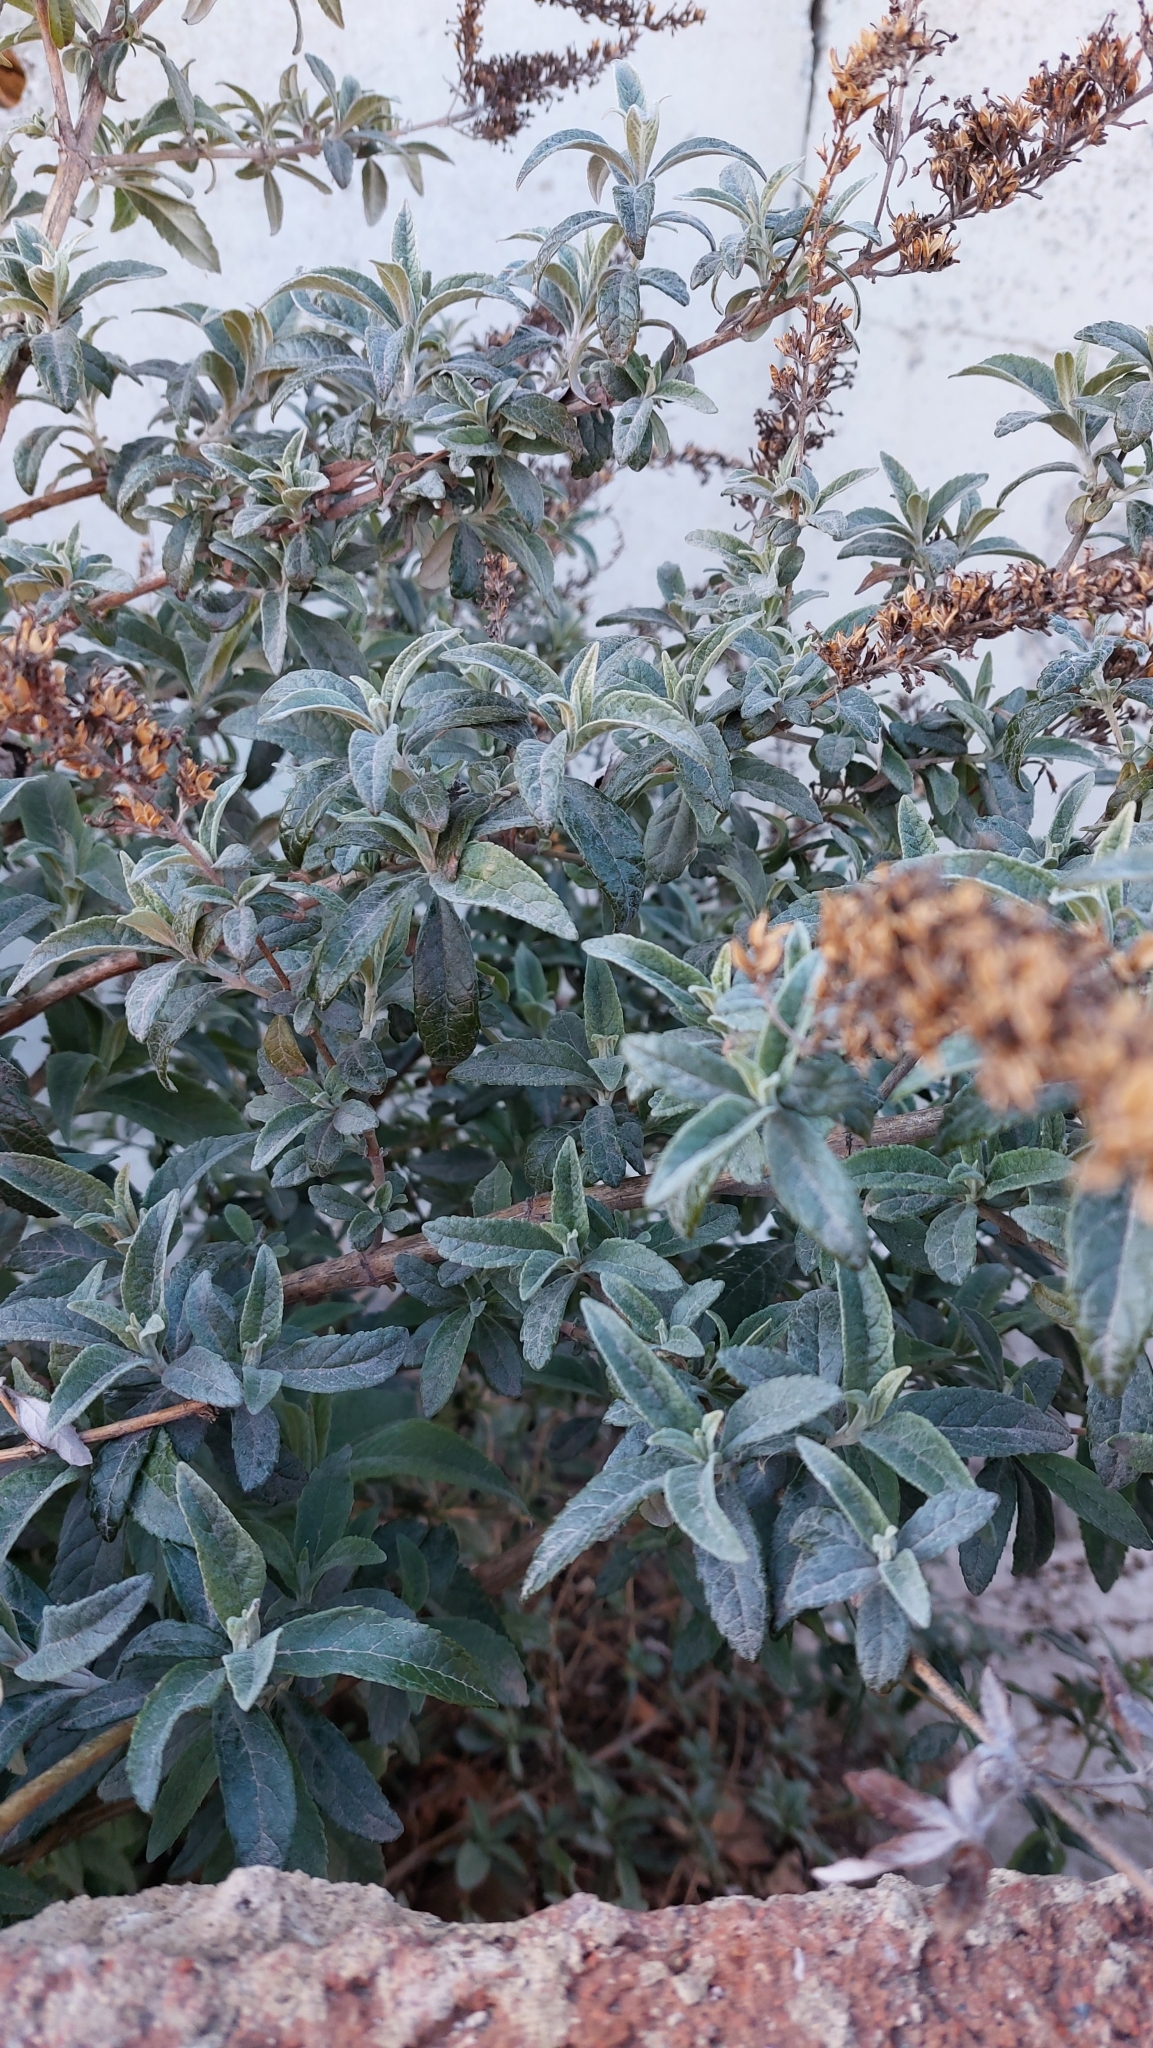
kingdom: Plantae
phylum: Tracheophyta
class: Magnoliopsida
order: Lamiales
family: Scrophulariaceae
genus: Buddleja
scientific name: Buddleja davidii
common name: Butterfly-bush
